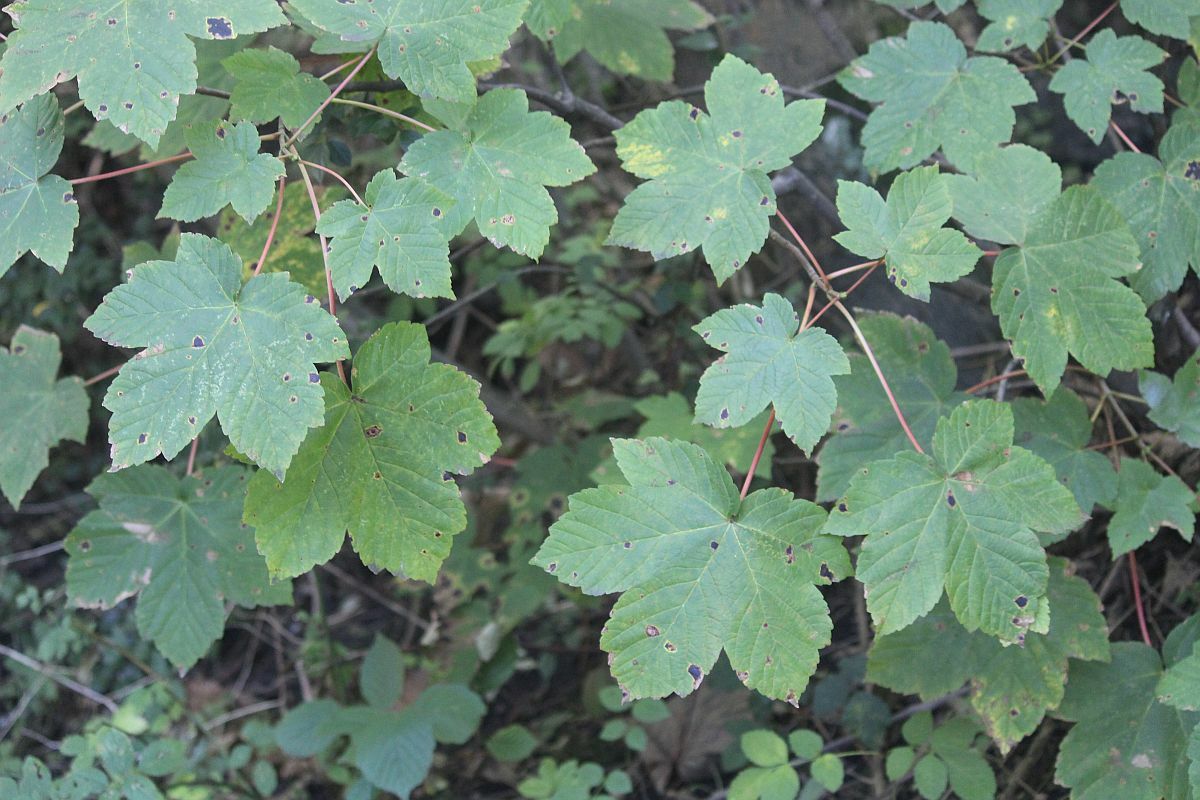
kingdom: Plantae
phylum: Tracheophyta
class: Magnoliopsida
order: Sapindales
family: Sapindaceae
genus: Acer
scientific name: Acer pseudoplatanus
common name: Sycamore
